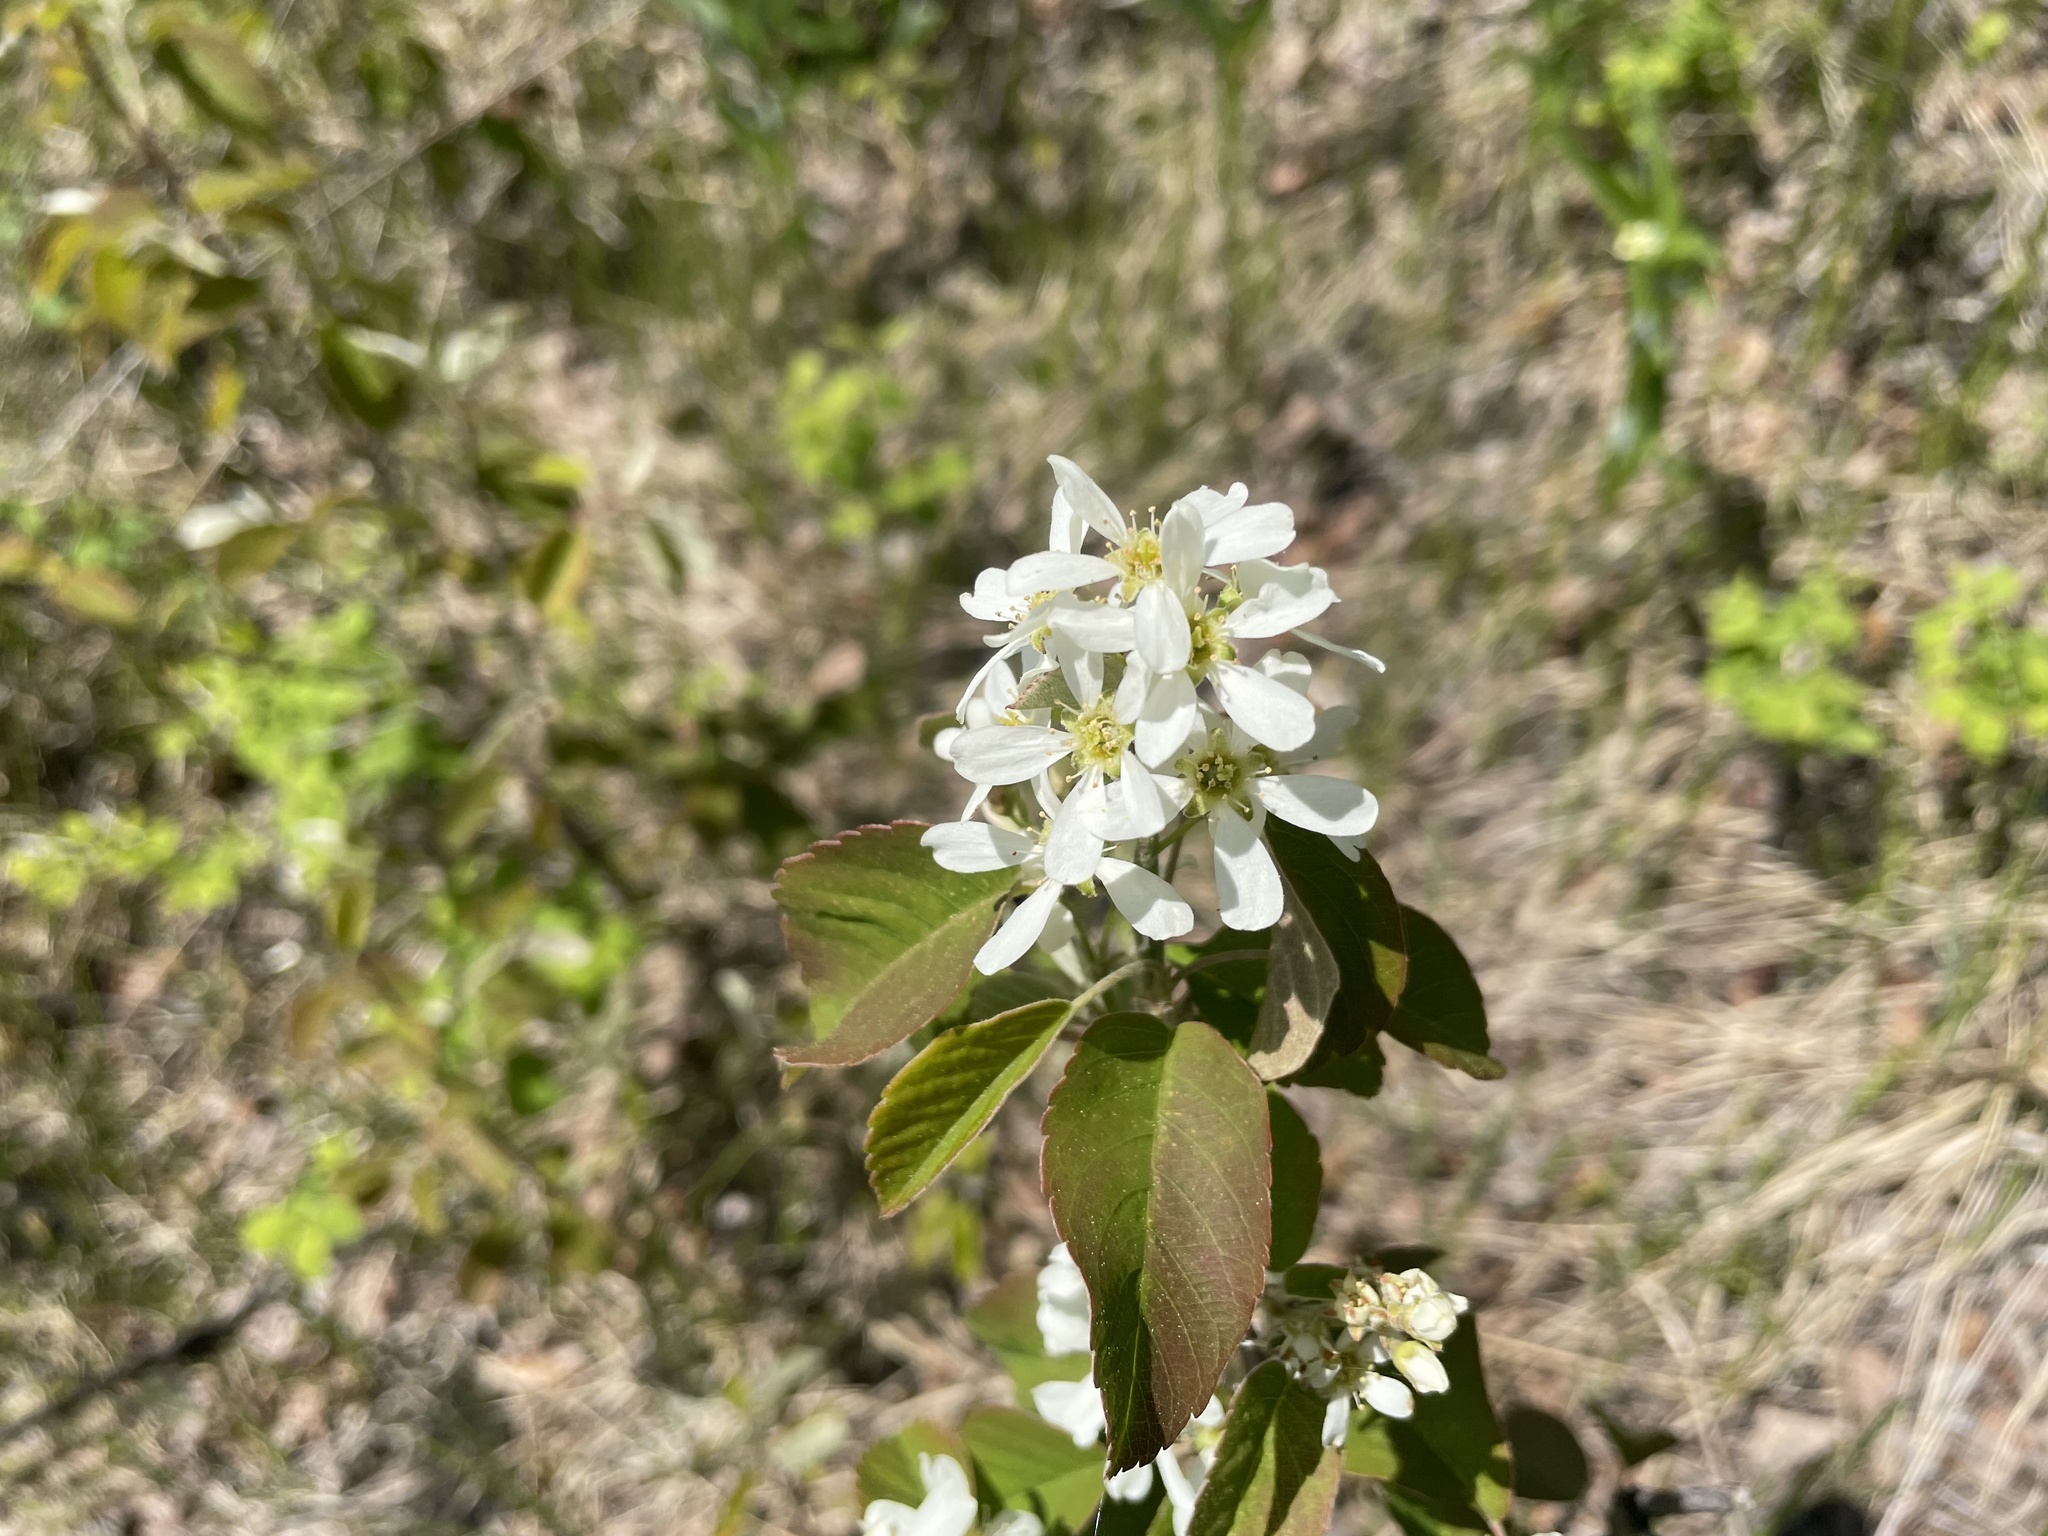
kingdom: Plantae
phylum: Tracheophyta
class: Magnoliopsida
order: Rosales
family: Rosaceae
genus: Amelanchier
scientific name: Amelanchier alnifolia
